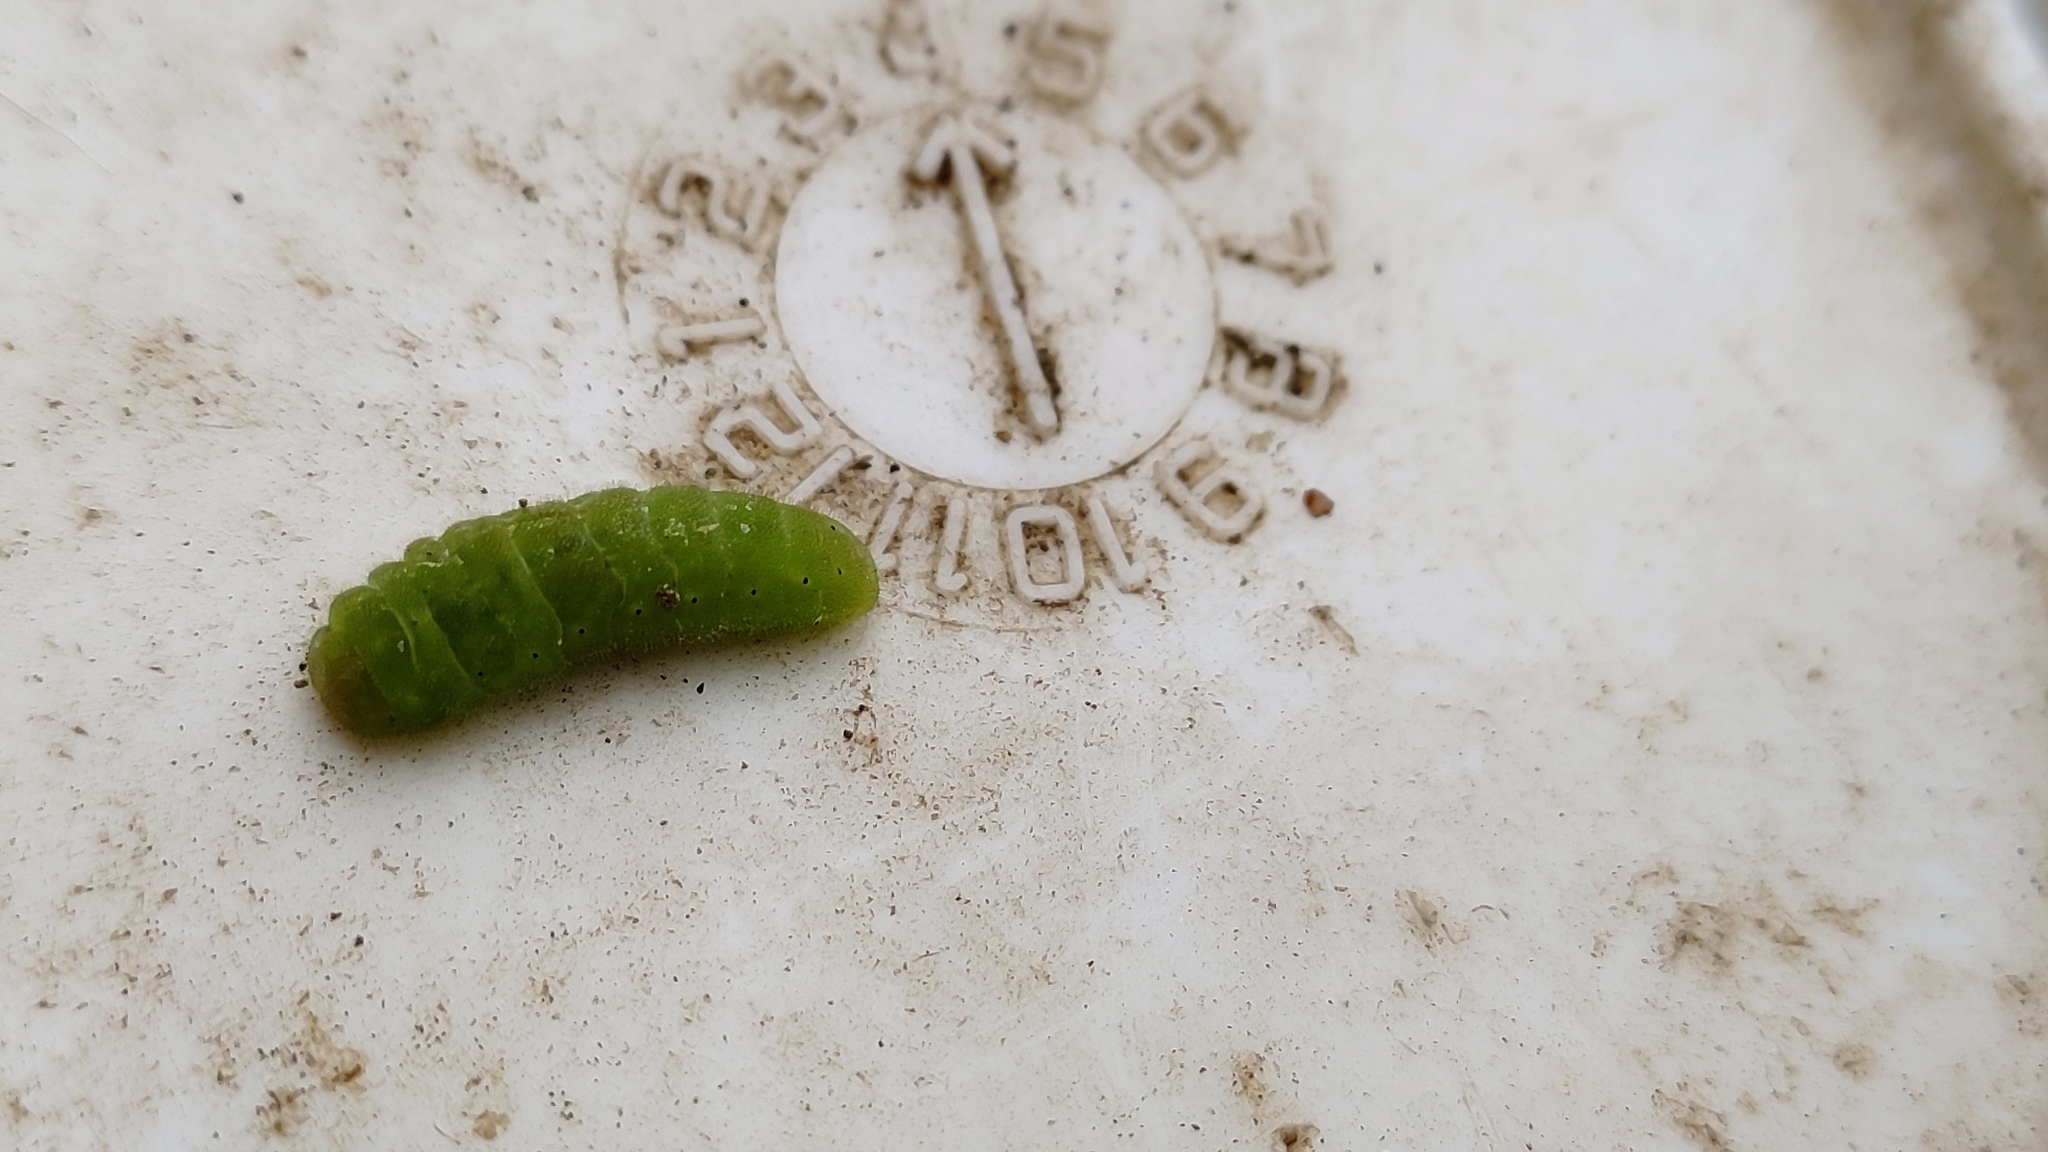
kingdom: Animalia
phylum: Arthropoda
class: Insecta
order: Lepidoptera
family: Lycaenidae
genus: Xamia
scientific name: Xamia xami
